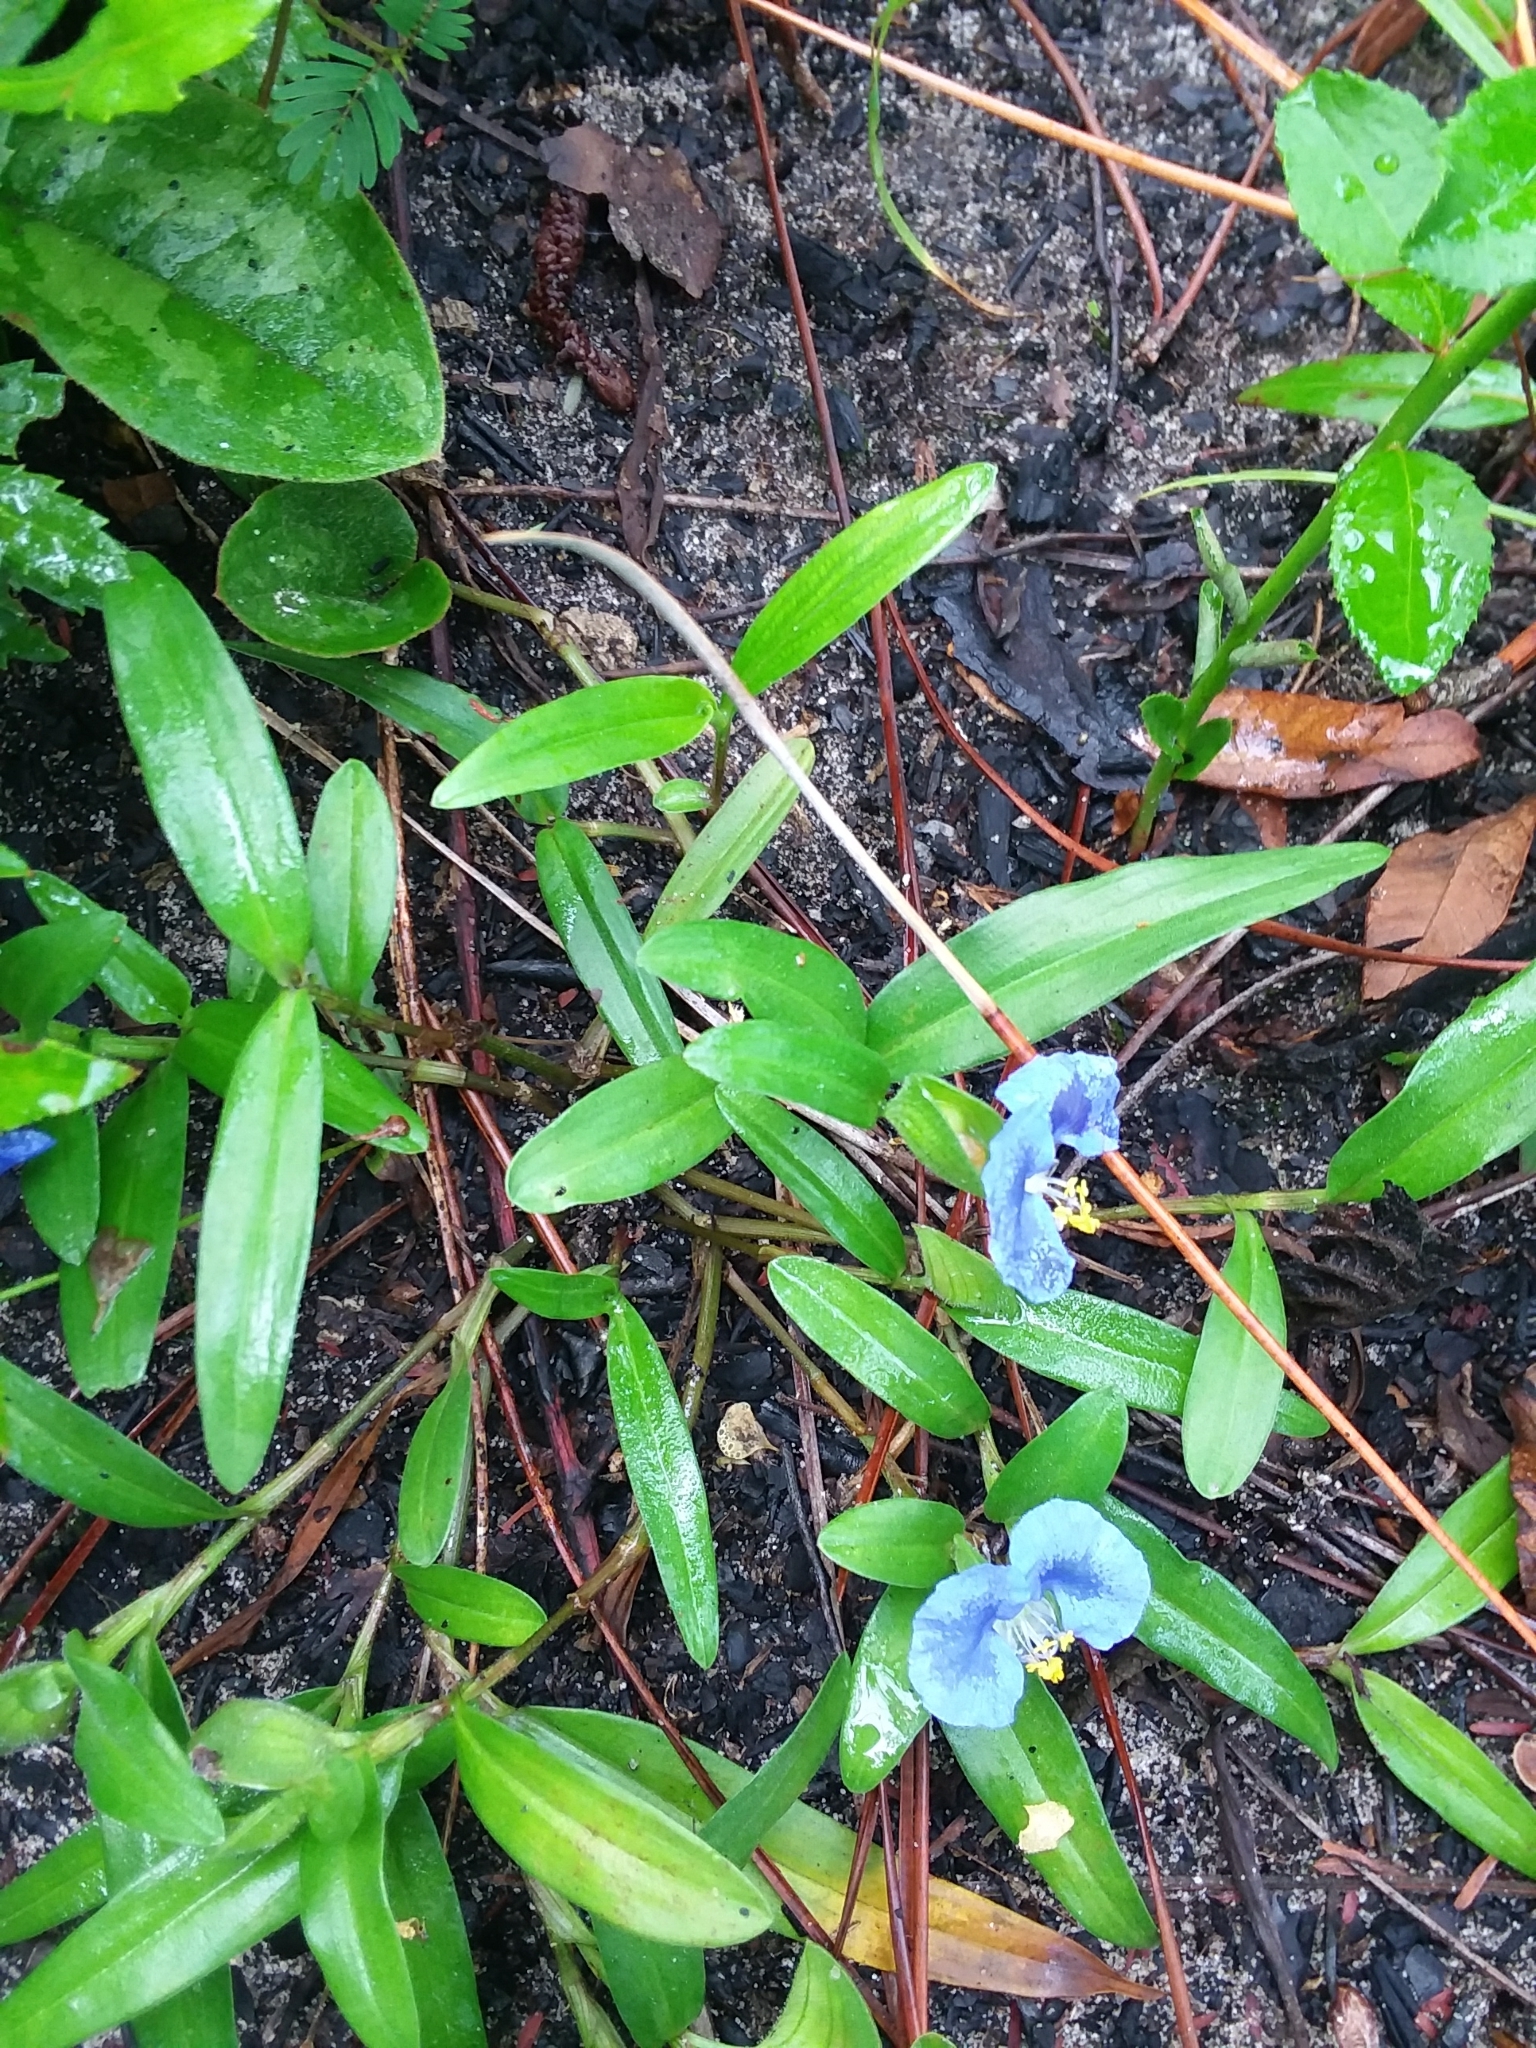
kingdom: Plantae
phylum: Tracheophyta
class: Liliopsida
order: Commelinales
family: Commelinaceae
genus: Commelina
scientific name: Commelina erecta
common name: Blousel blommetjie
